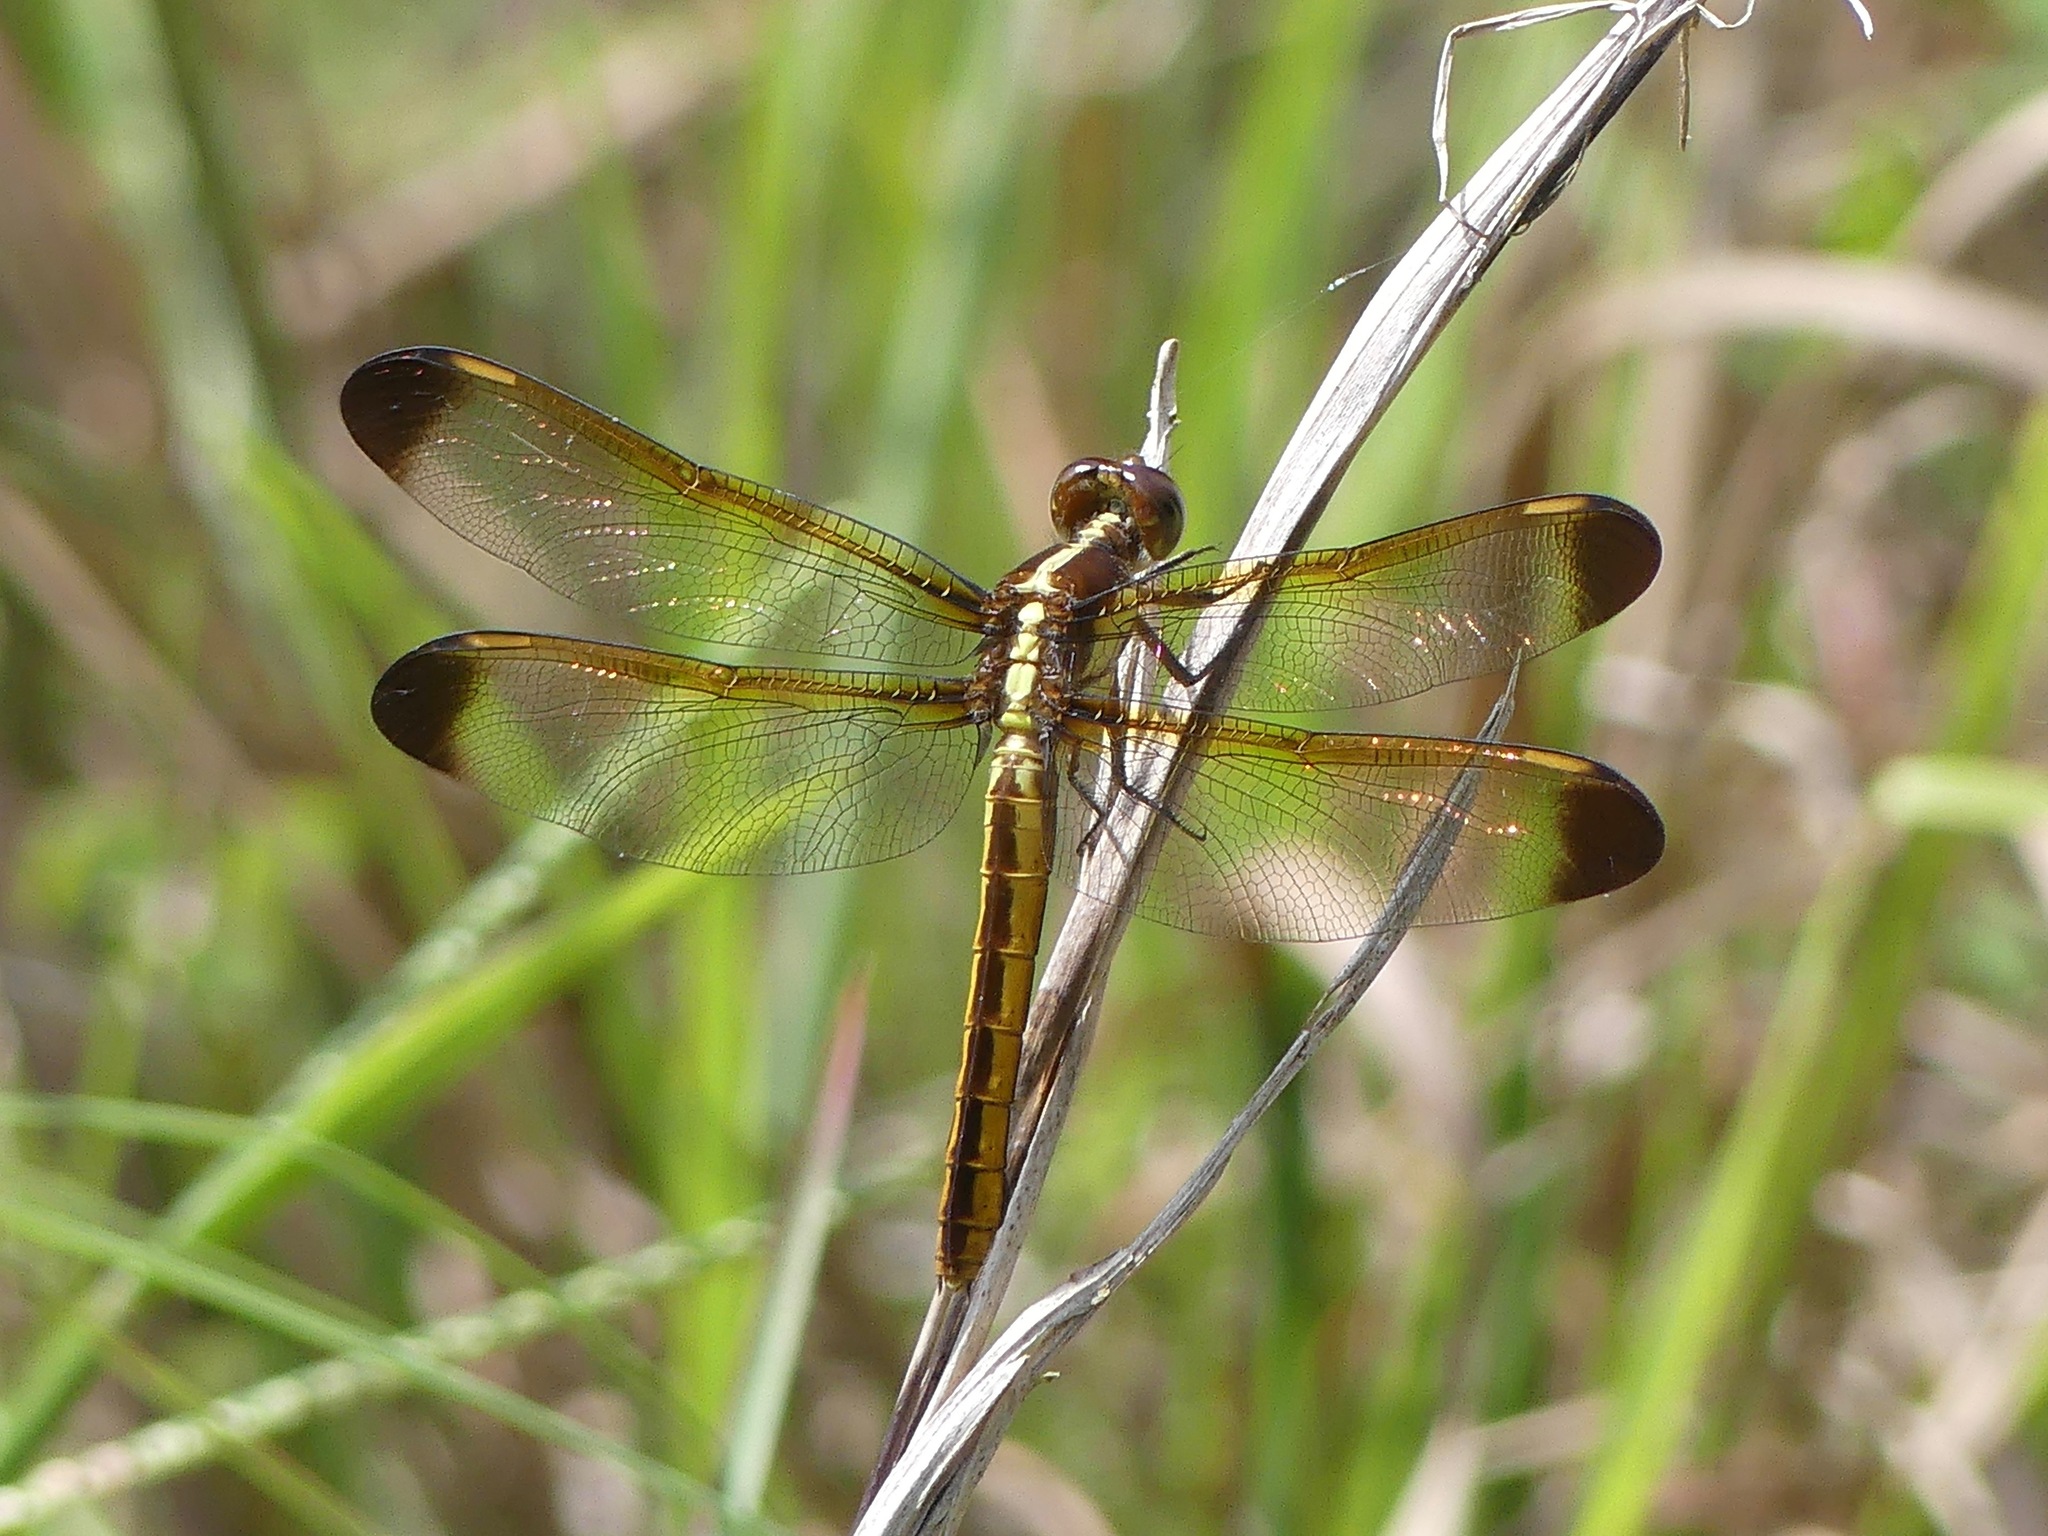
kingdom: Animalia
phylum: Arthropoda
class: Insecta
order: Odonata
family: Libellulidae
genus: Libellula
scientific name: Libellula flavida
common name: Yellow-sided skimmer
